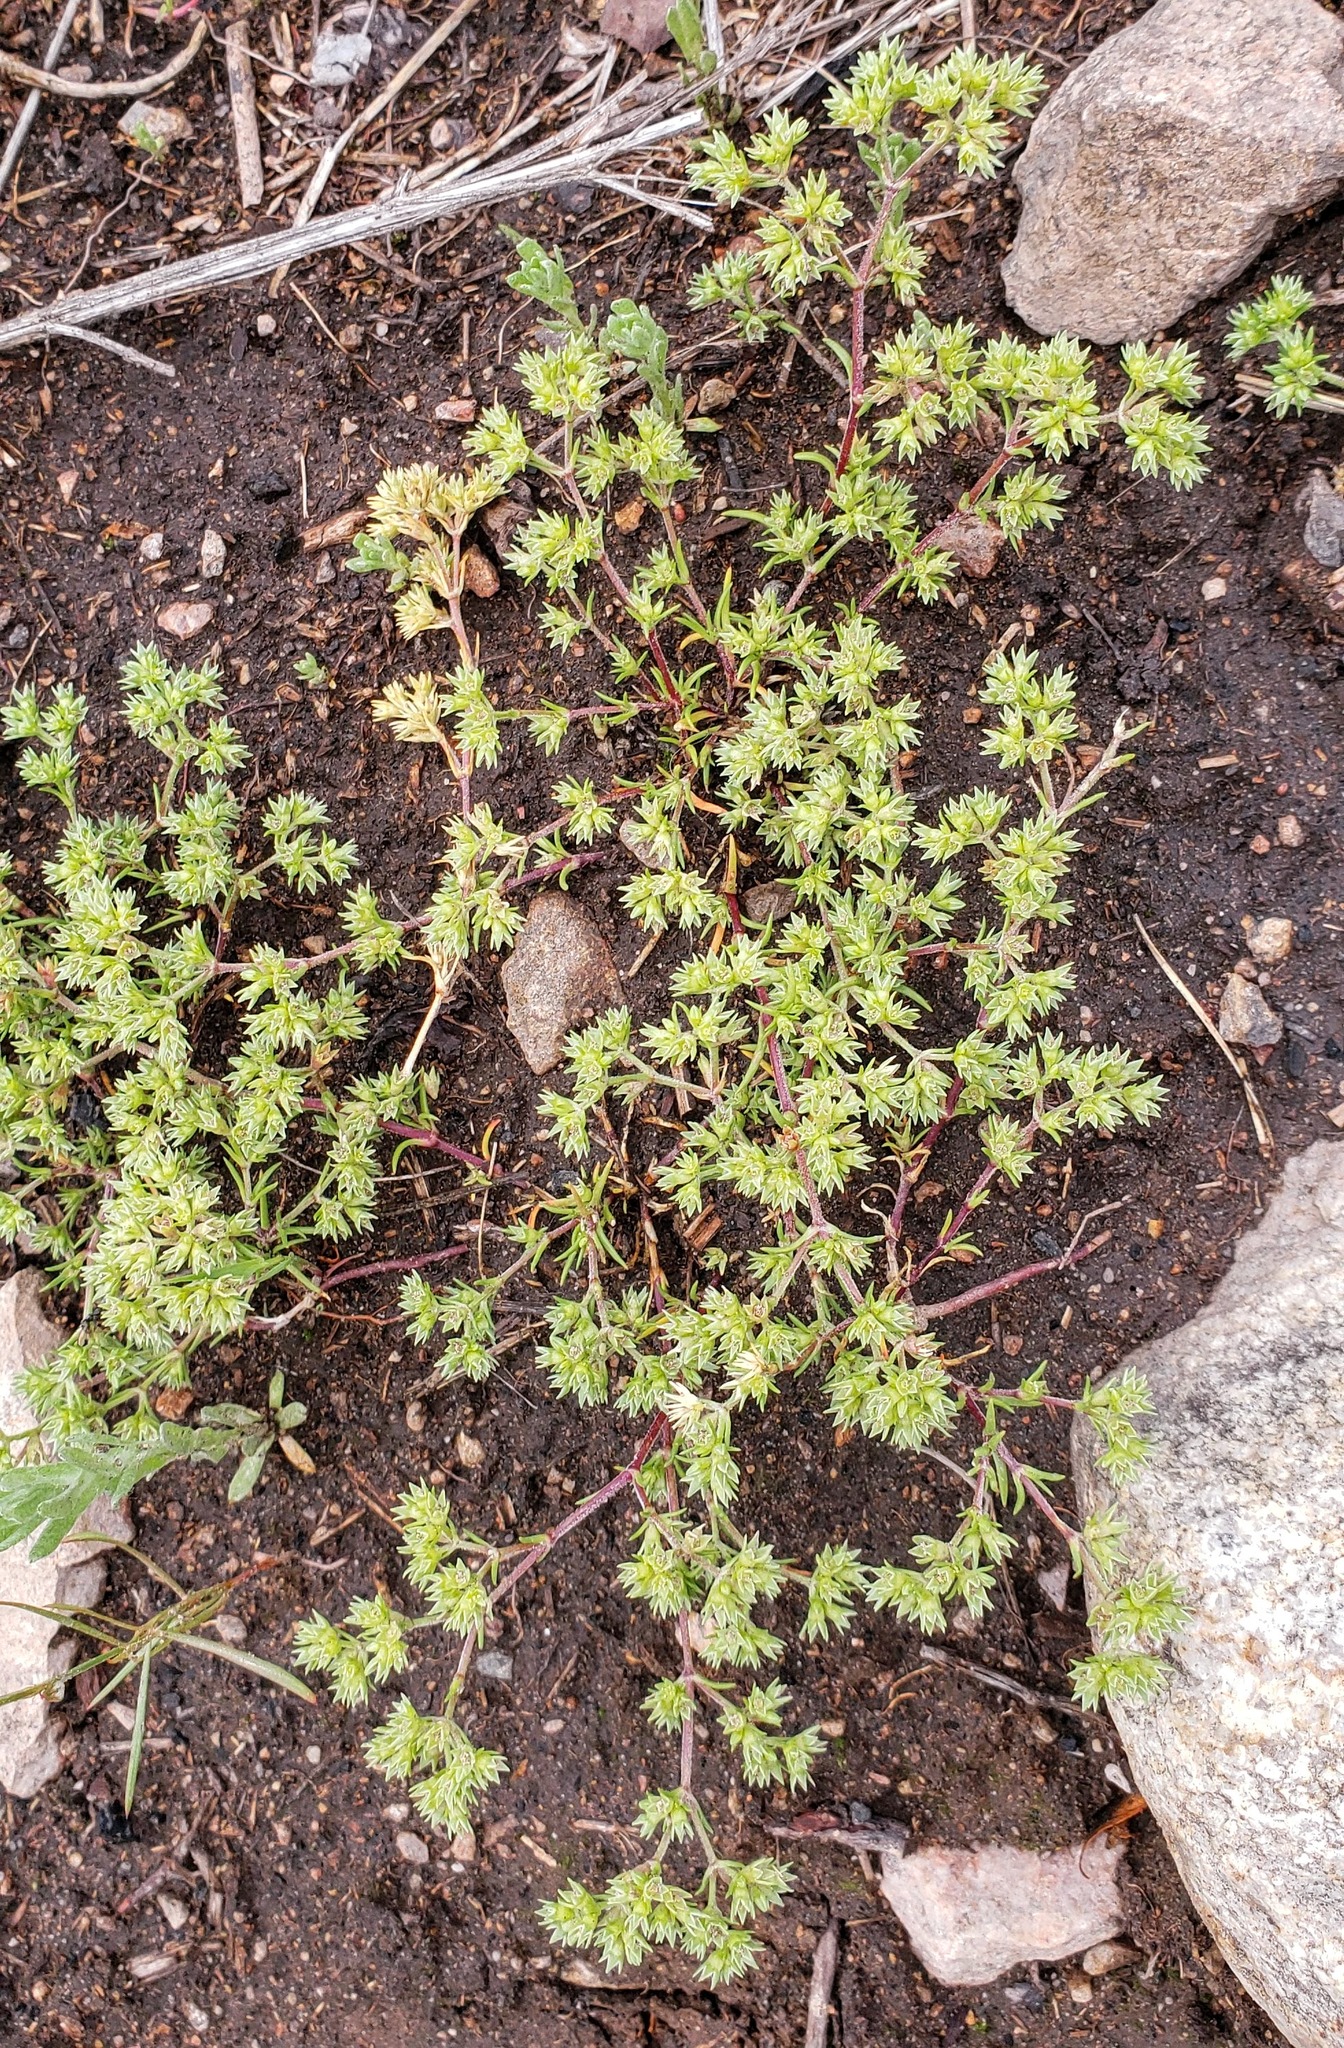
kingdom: Plantae
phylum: Tracheophyta
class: Magnoliopsida
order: Caryophyllales
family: Caryophyllaceae
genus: Scleranthus
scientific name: Scleranthus annuus
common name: Annual knawel
